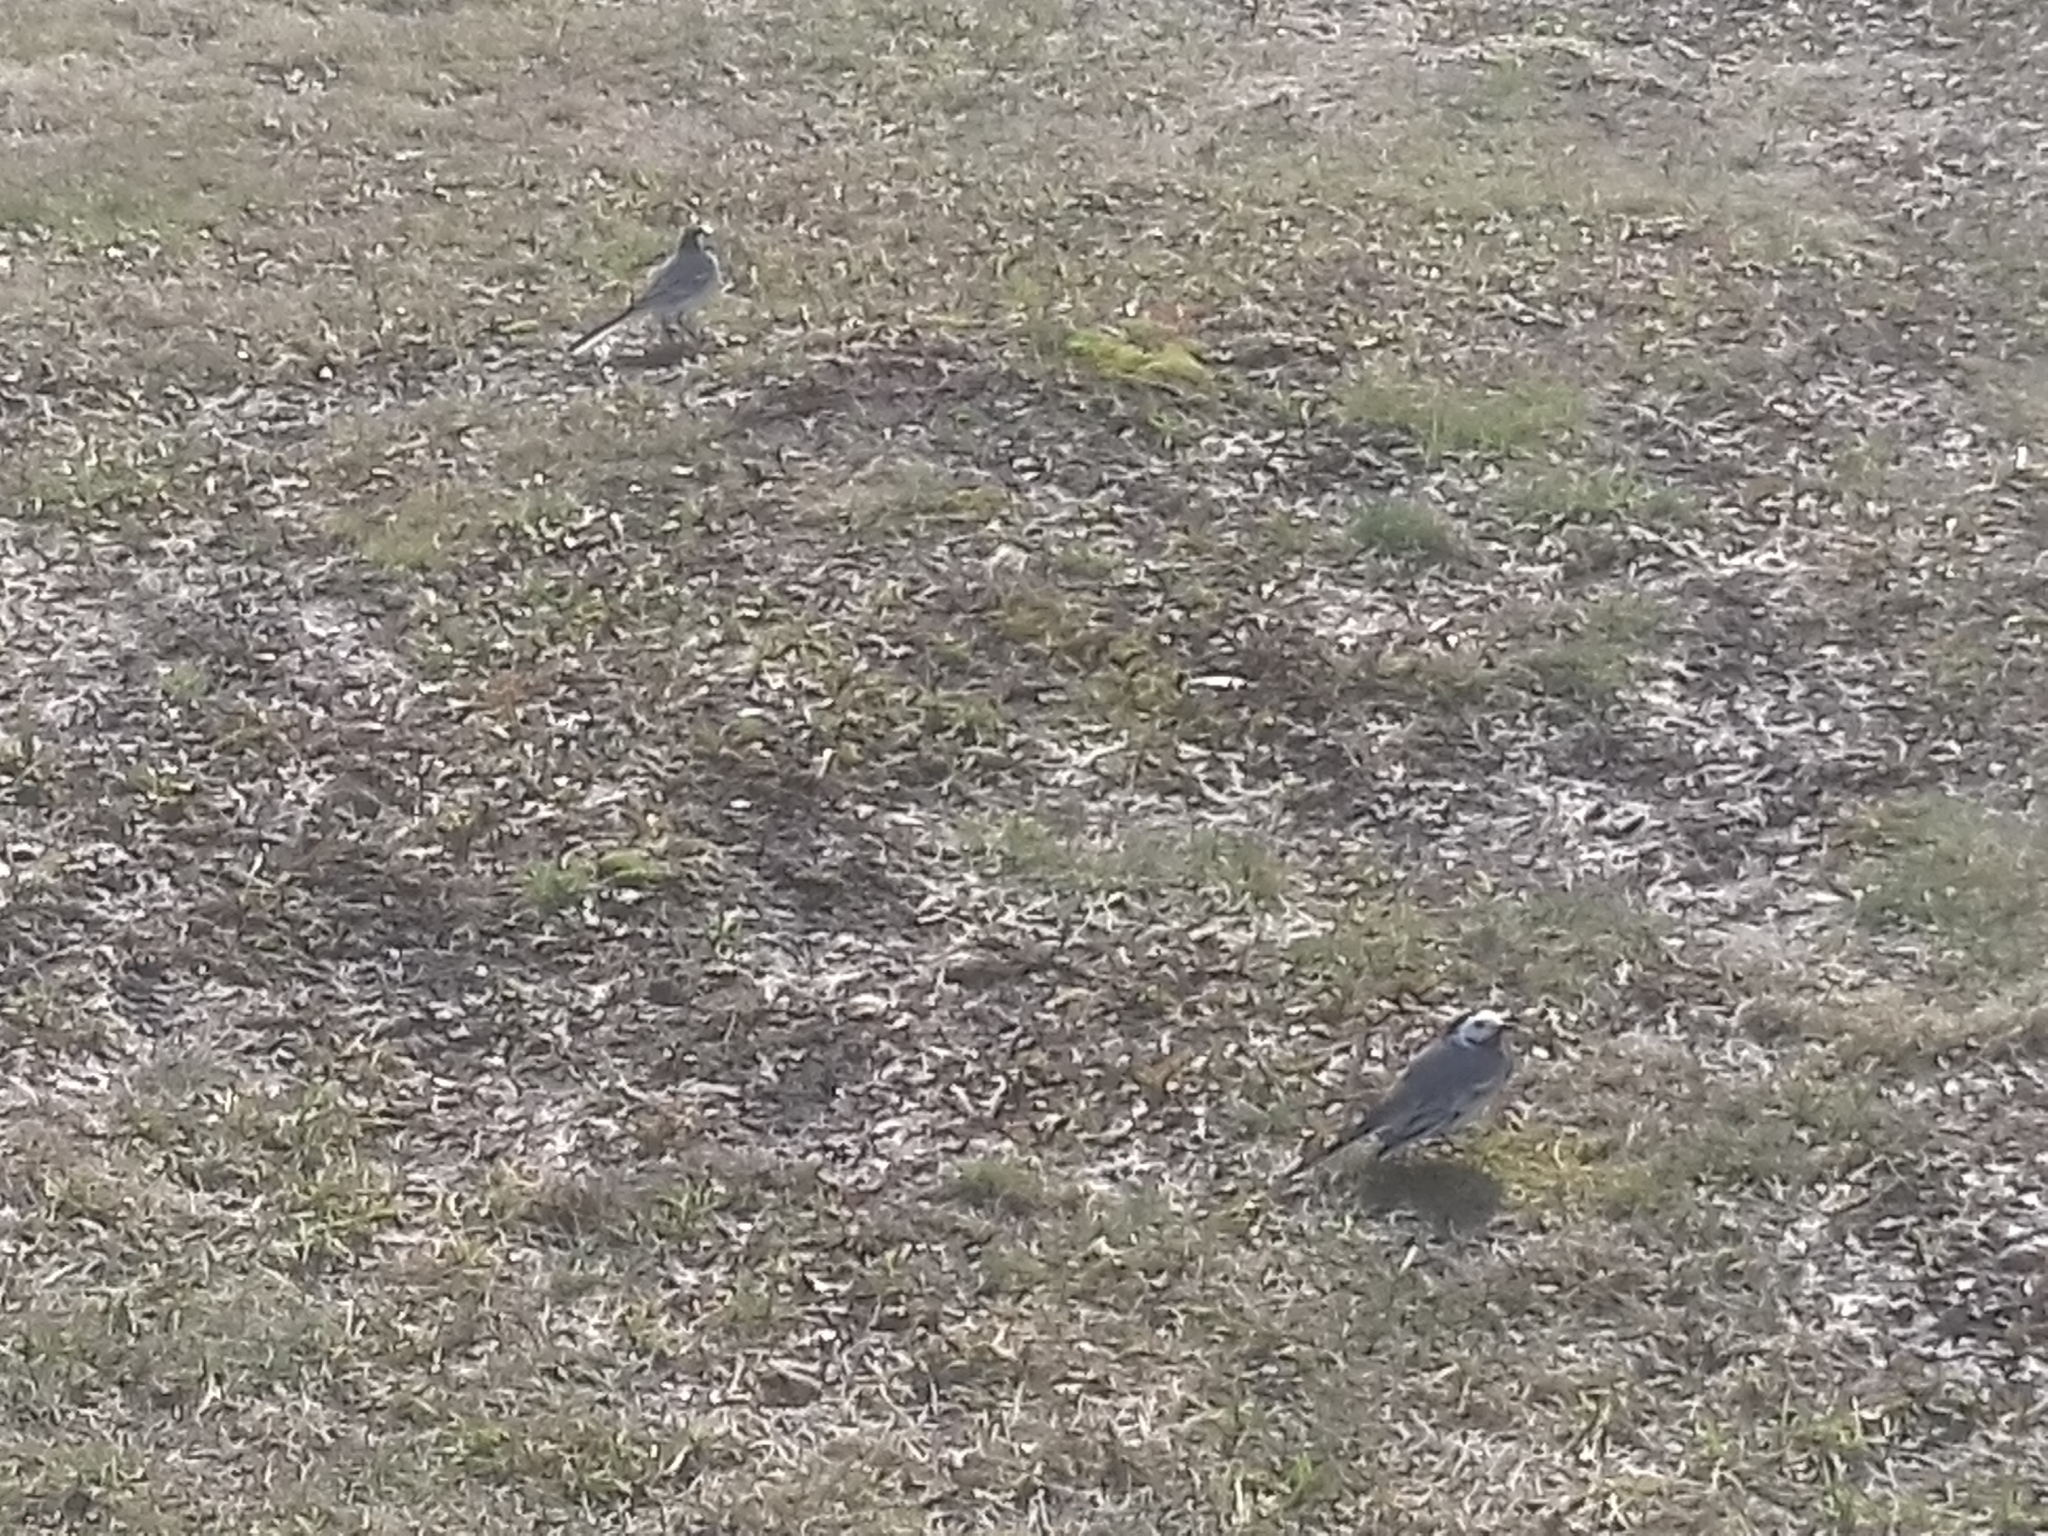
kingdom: Animalia
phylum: Chordata
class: Aves
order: Passeriformes
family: Motacillidae
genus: Motacilla
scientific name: Motacilla alba
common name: White wagtail
